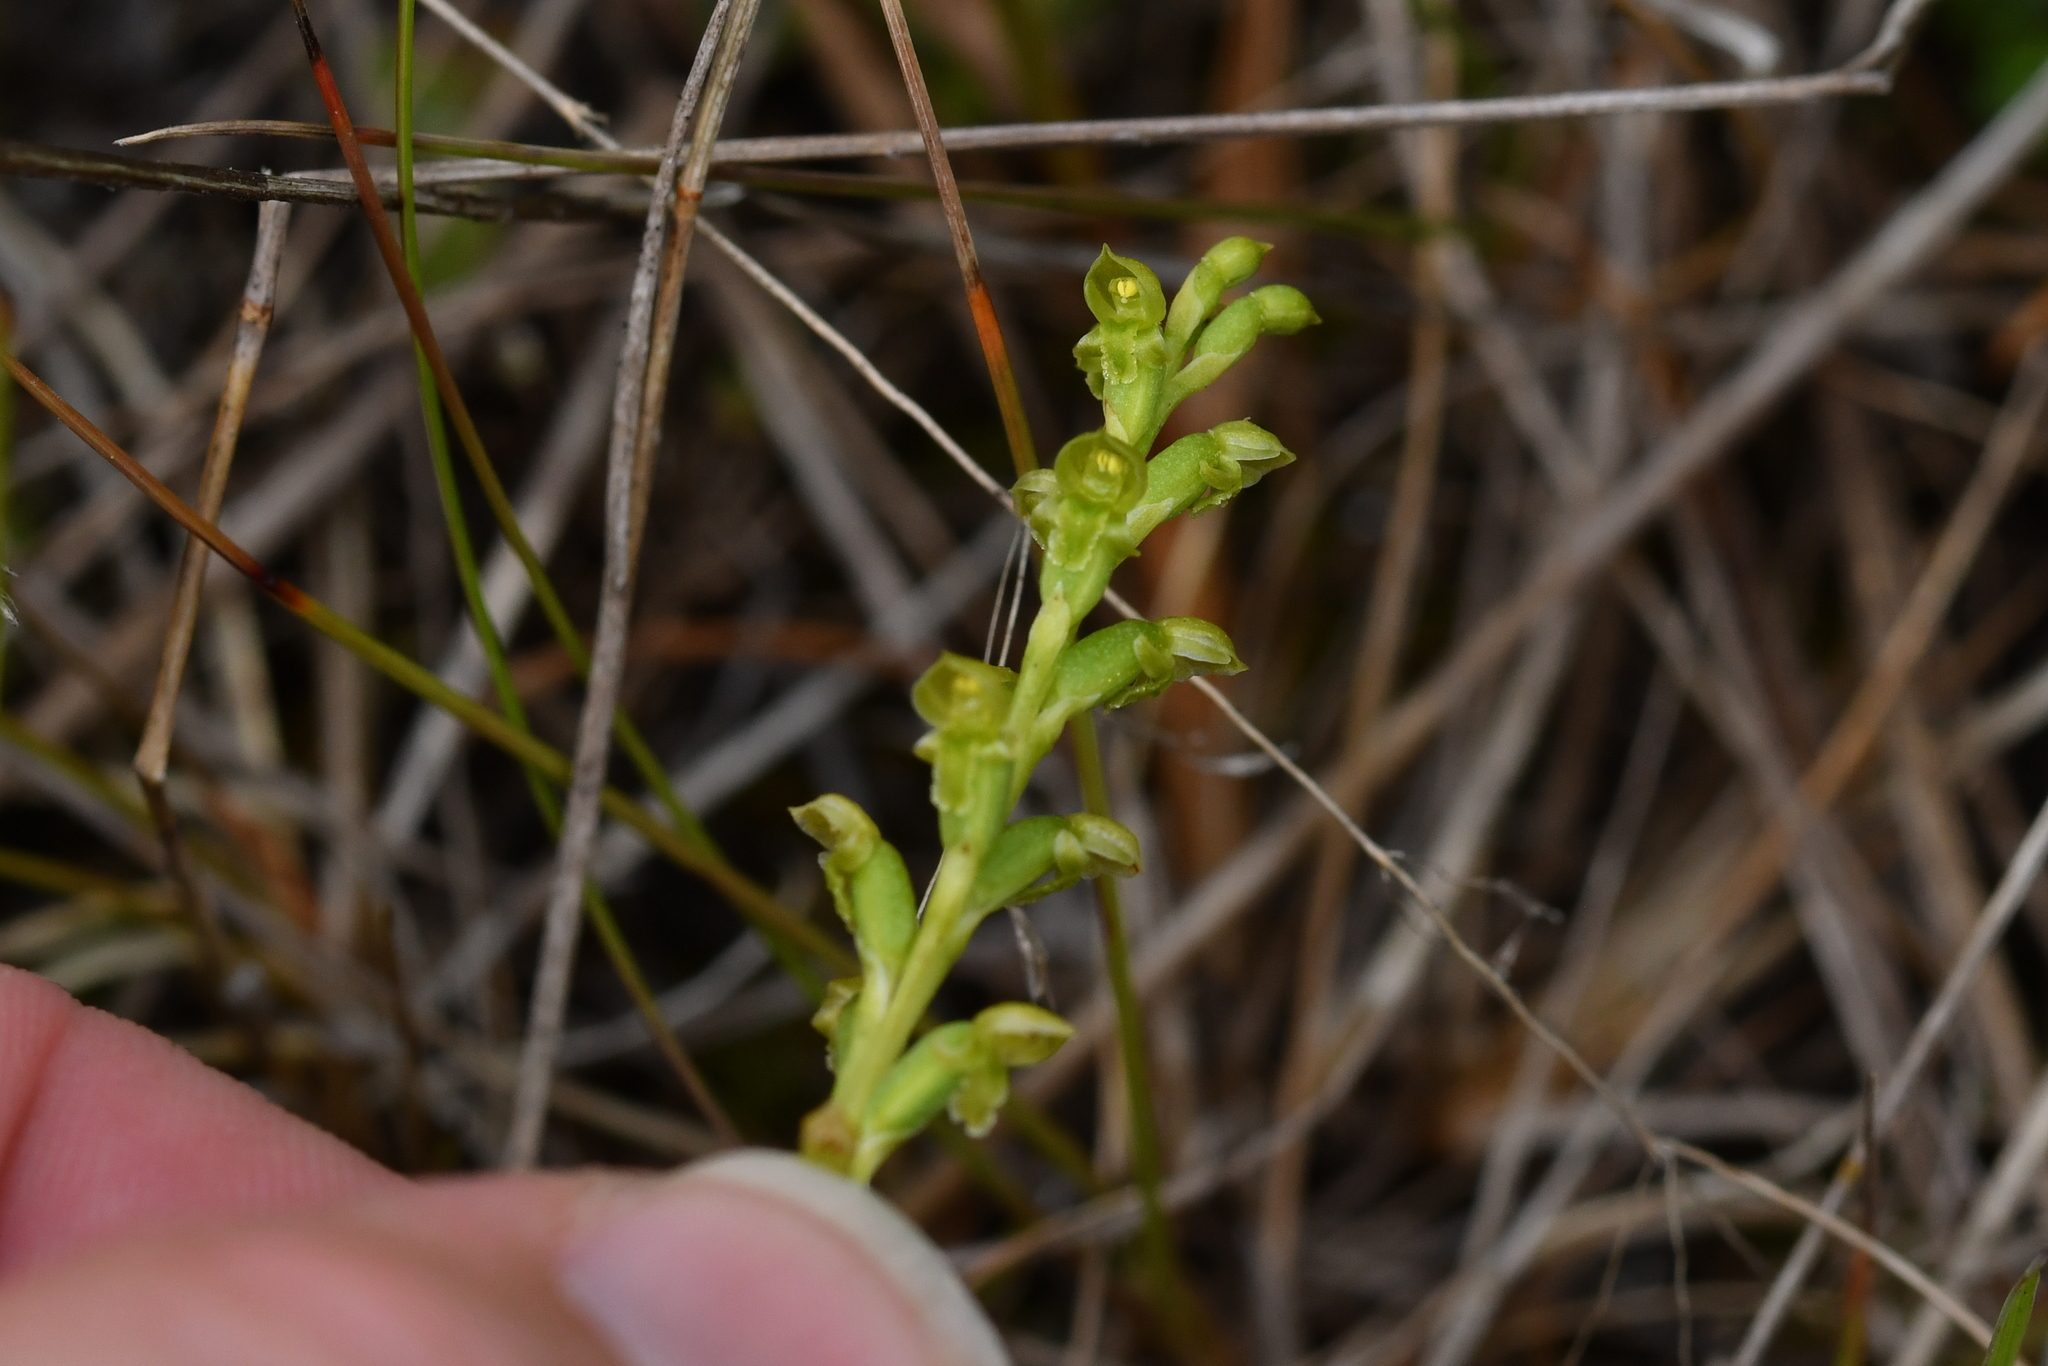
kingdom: Plantae
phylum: Tracheophyta
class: Liliopsida
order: Asparagales
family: Orchidaceae
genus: Microtis
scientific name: Microtis unifolia
